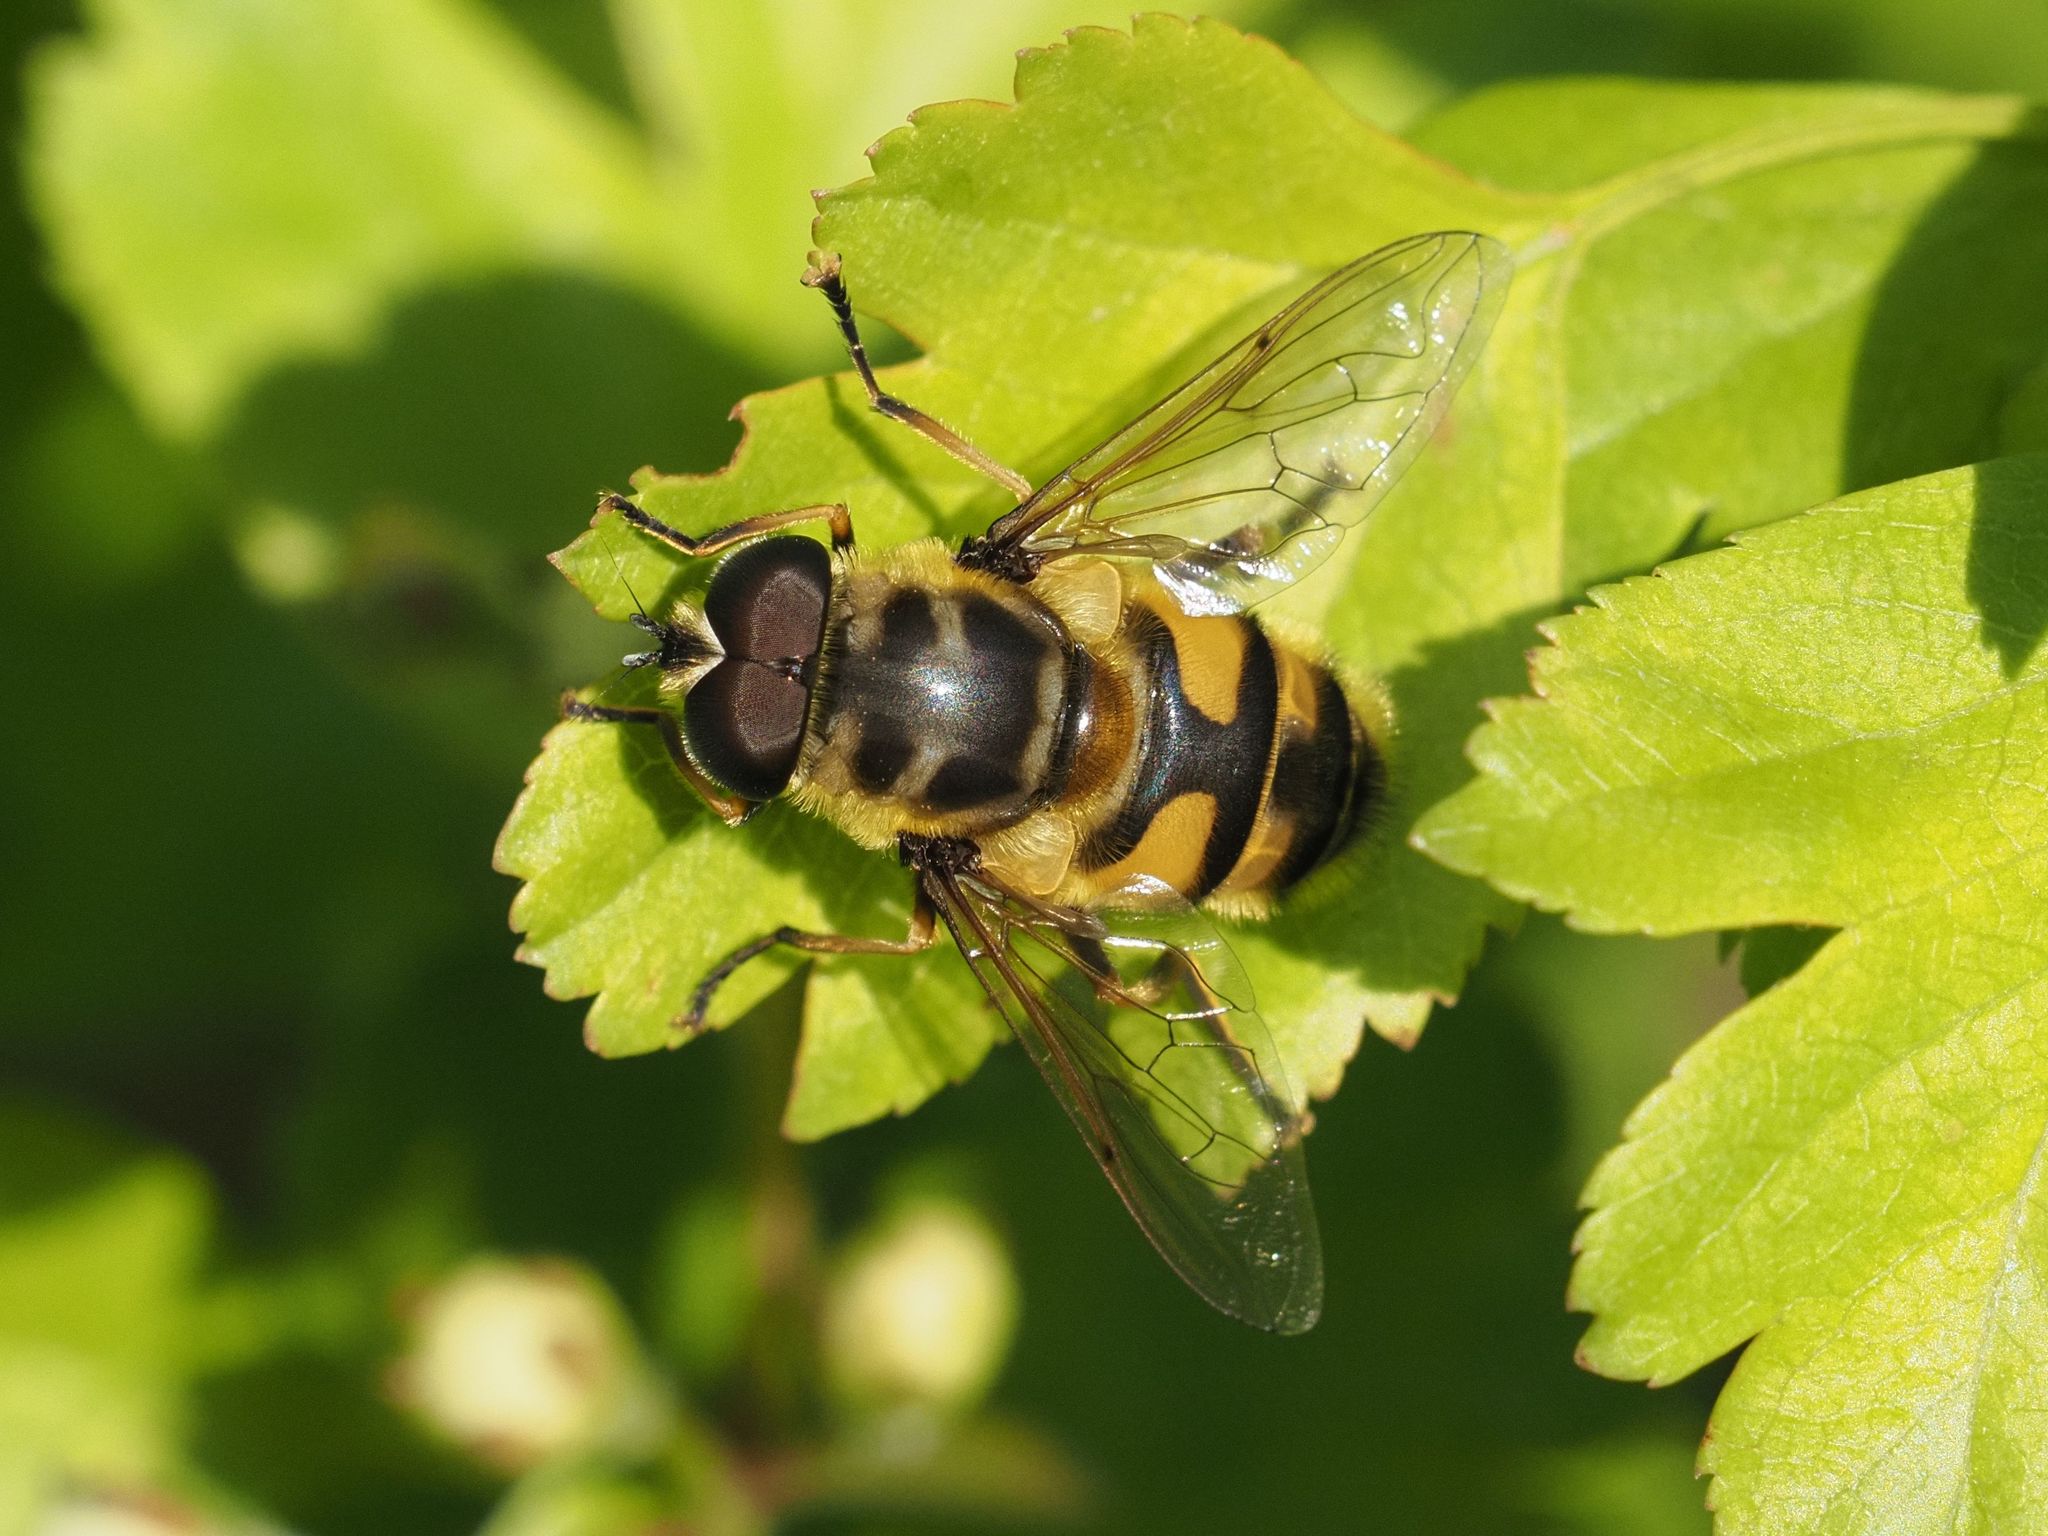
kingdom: Animalia
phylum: Arthropoda
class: Insecta
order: Diptera
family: Syrphidae
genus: Myathropa
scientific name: Myathropa florea
